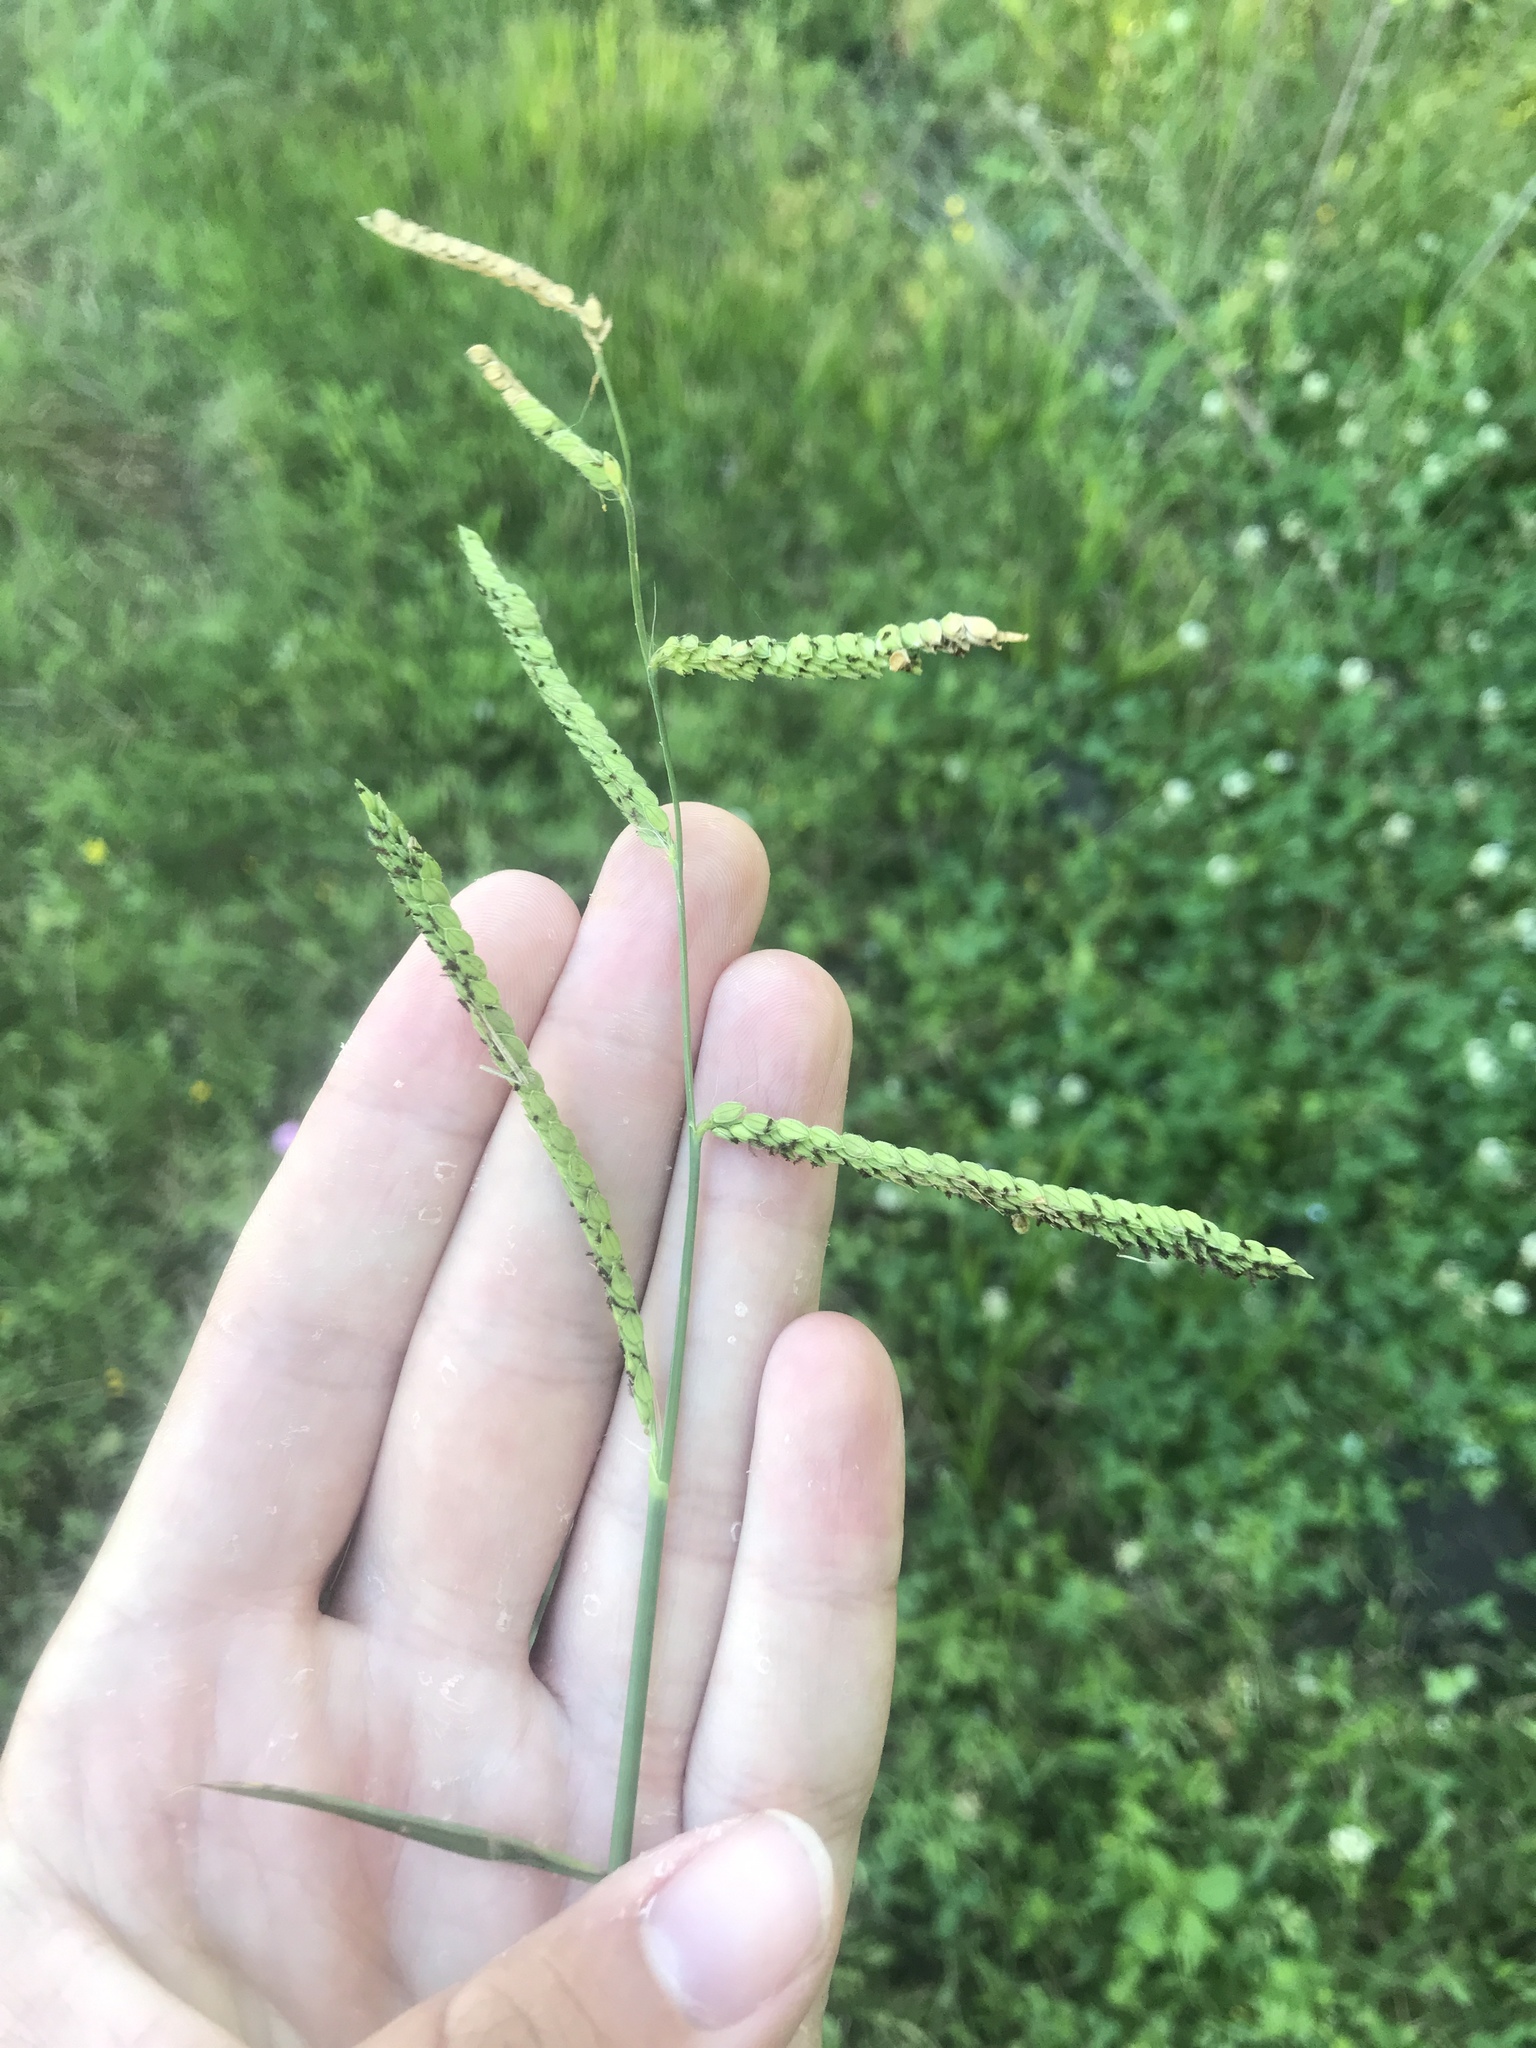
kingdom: Plantae
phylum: Tracheophyta
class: Liliopsida
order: Poales
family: Poaceae
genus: Paspalum
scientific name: Paspalum dilatatum
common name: Dallisgrass
